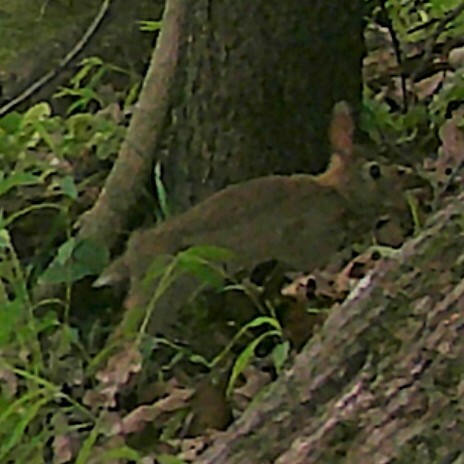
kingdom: Animalia
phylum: Chordata
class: Mammalia
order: Lagomorpha
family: Leporidae
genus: Sylvilagus
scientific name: Sylvilagus floridanus
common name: Eastern cottontail
